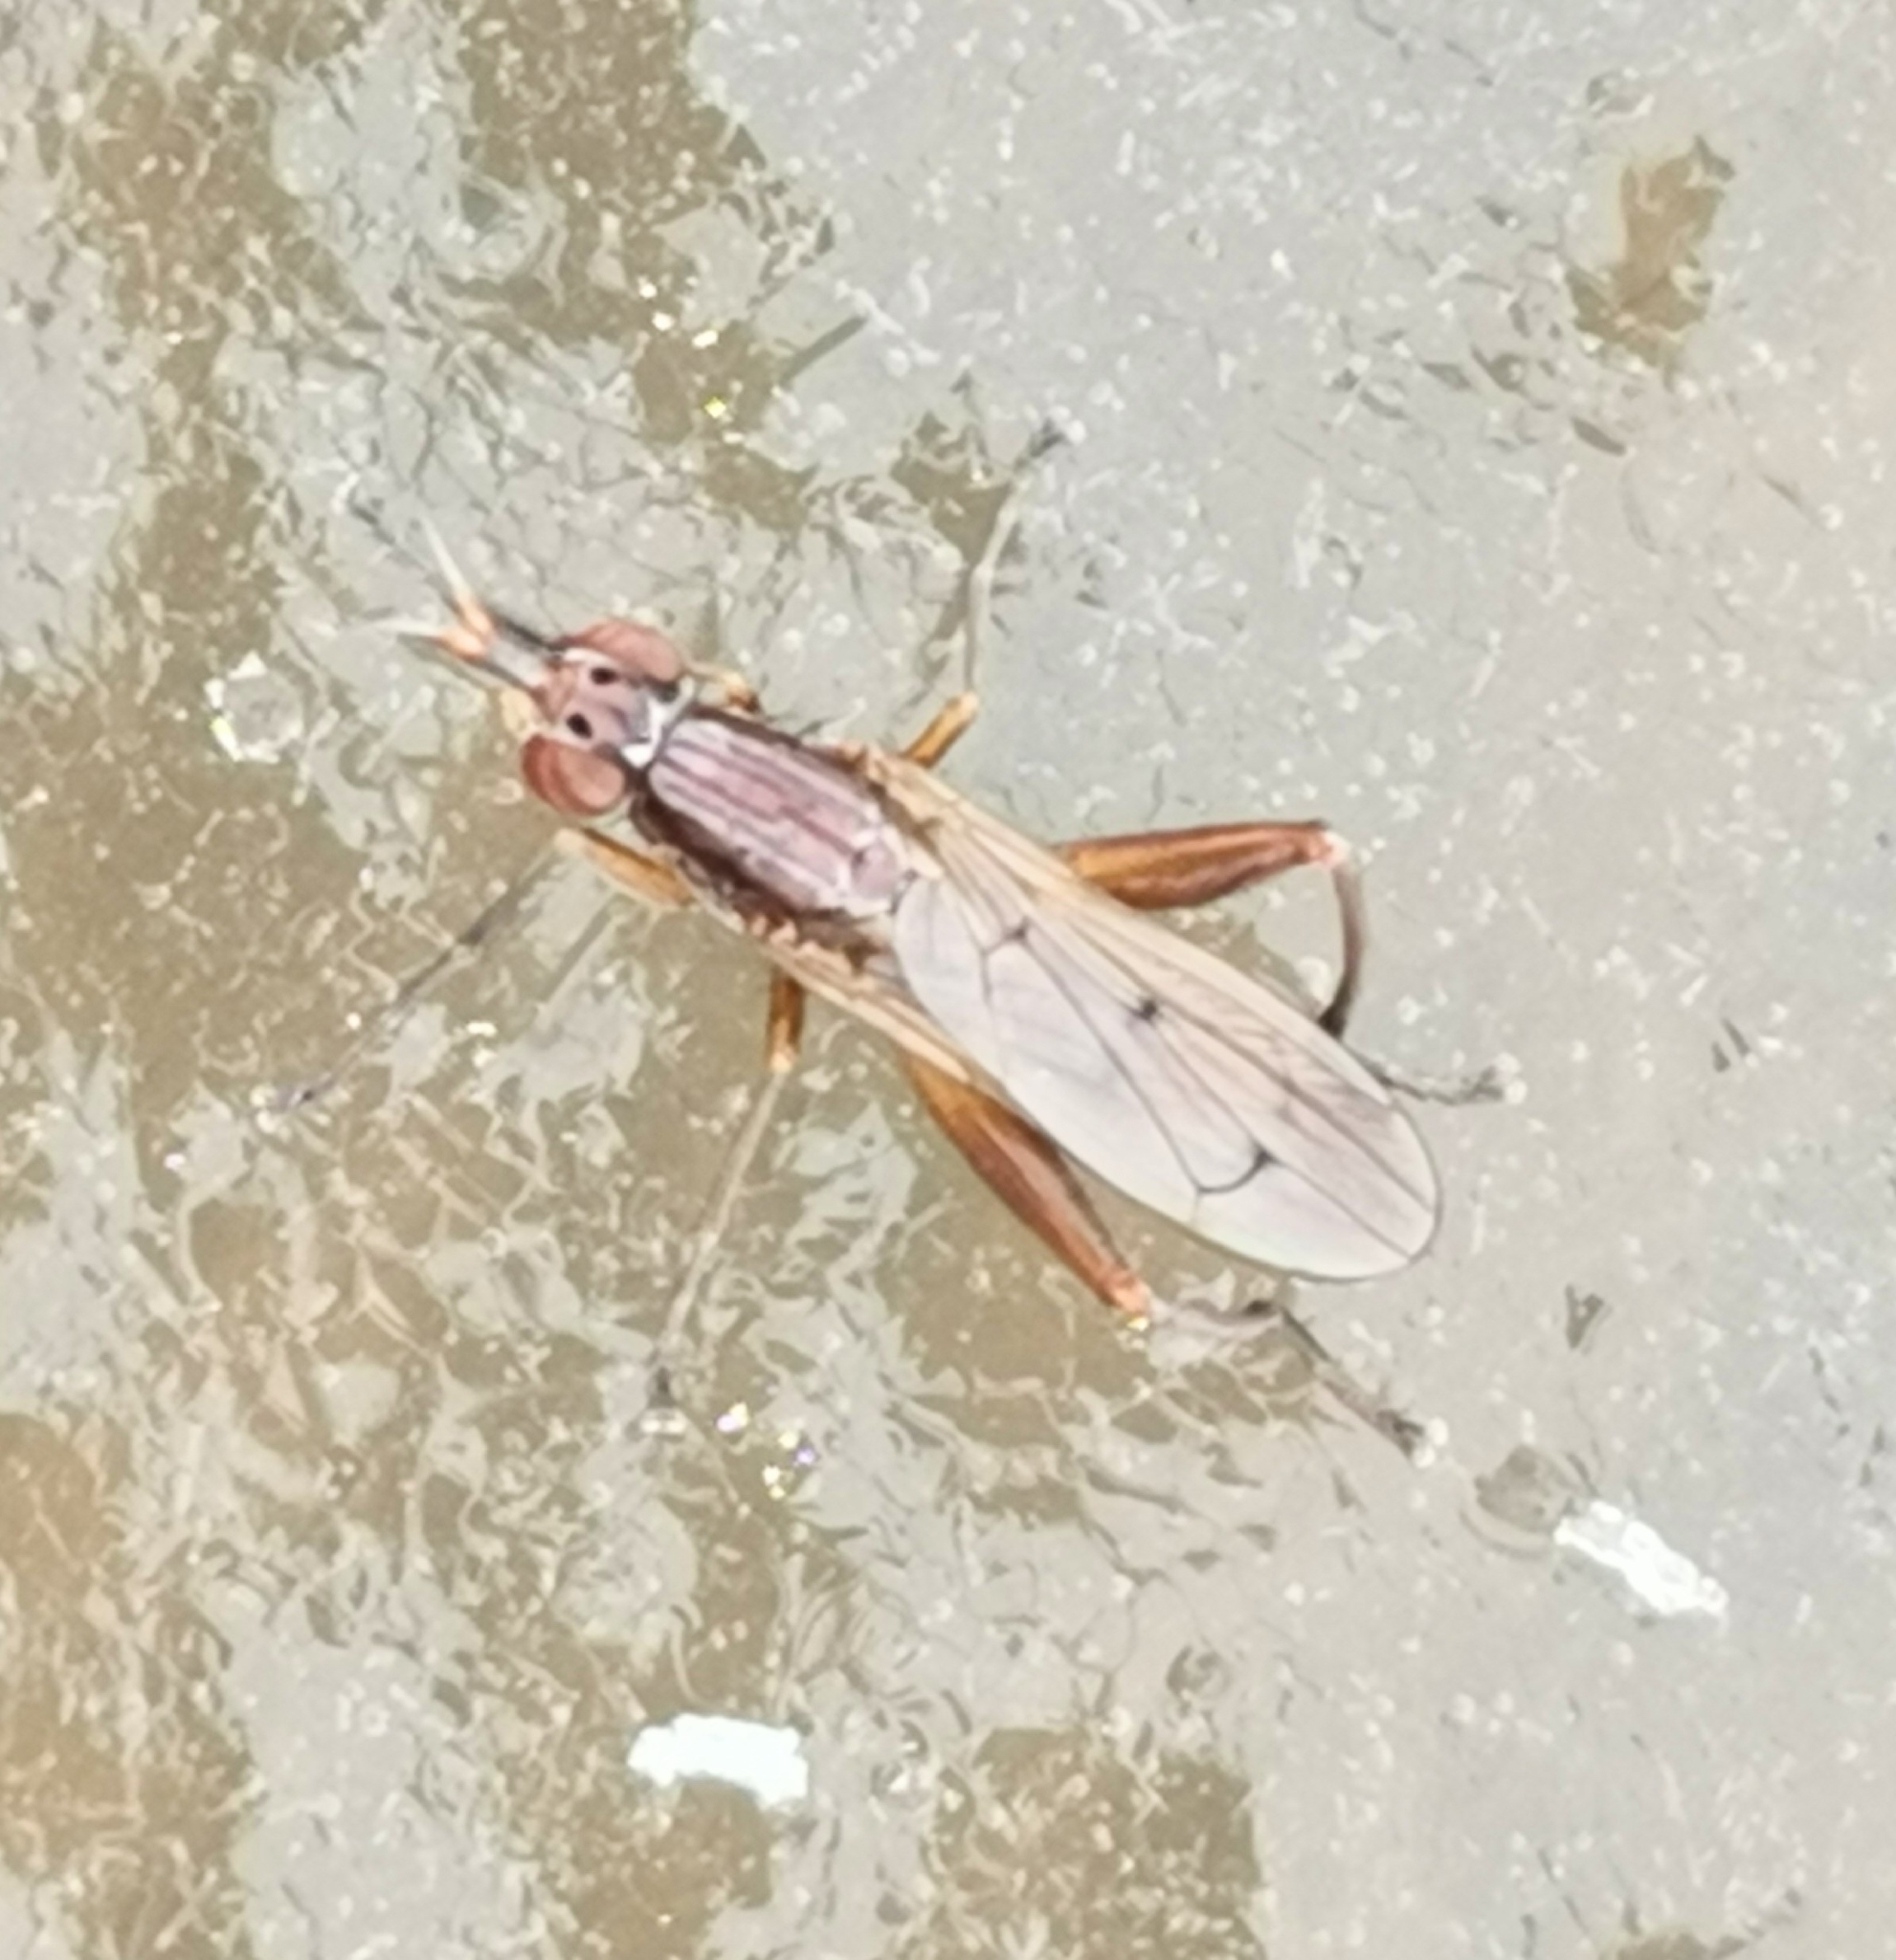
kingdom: Animalia
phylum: Arthropoda
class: Insecta
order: Diptera
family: Sciomyzidae
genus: Sepedon
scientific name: Sepedon spinipes
